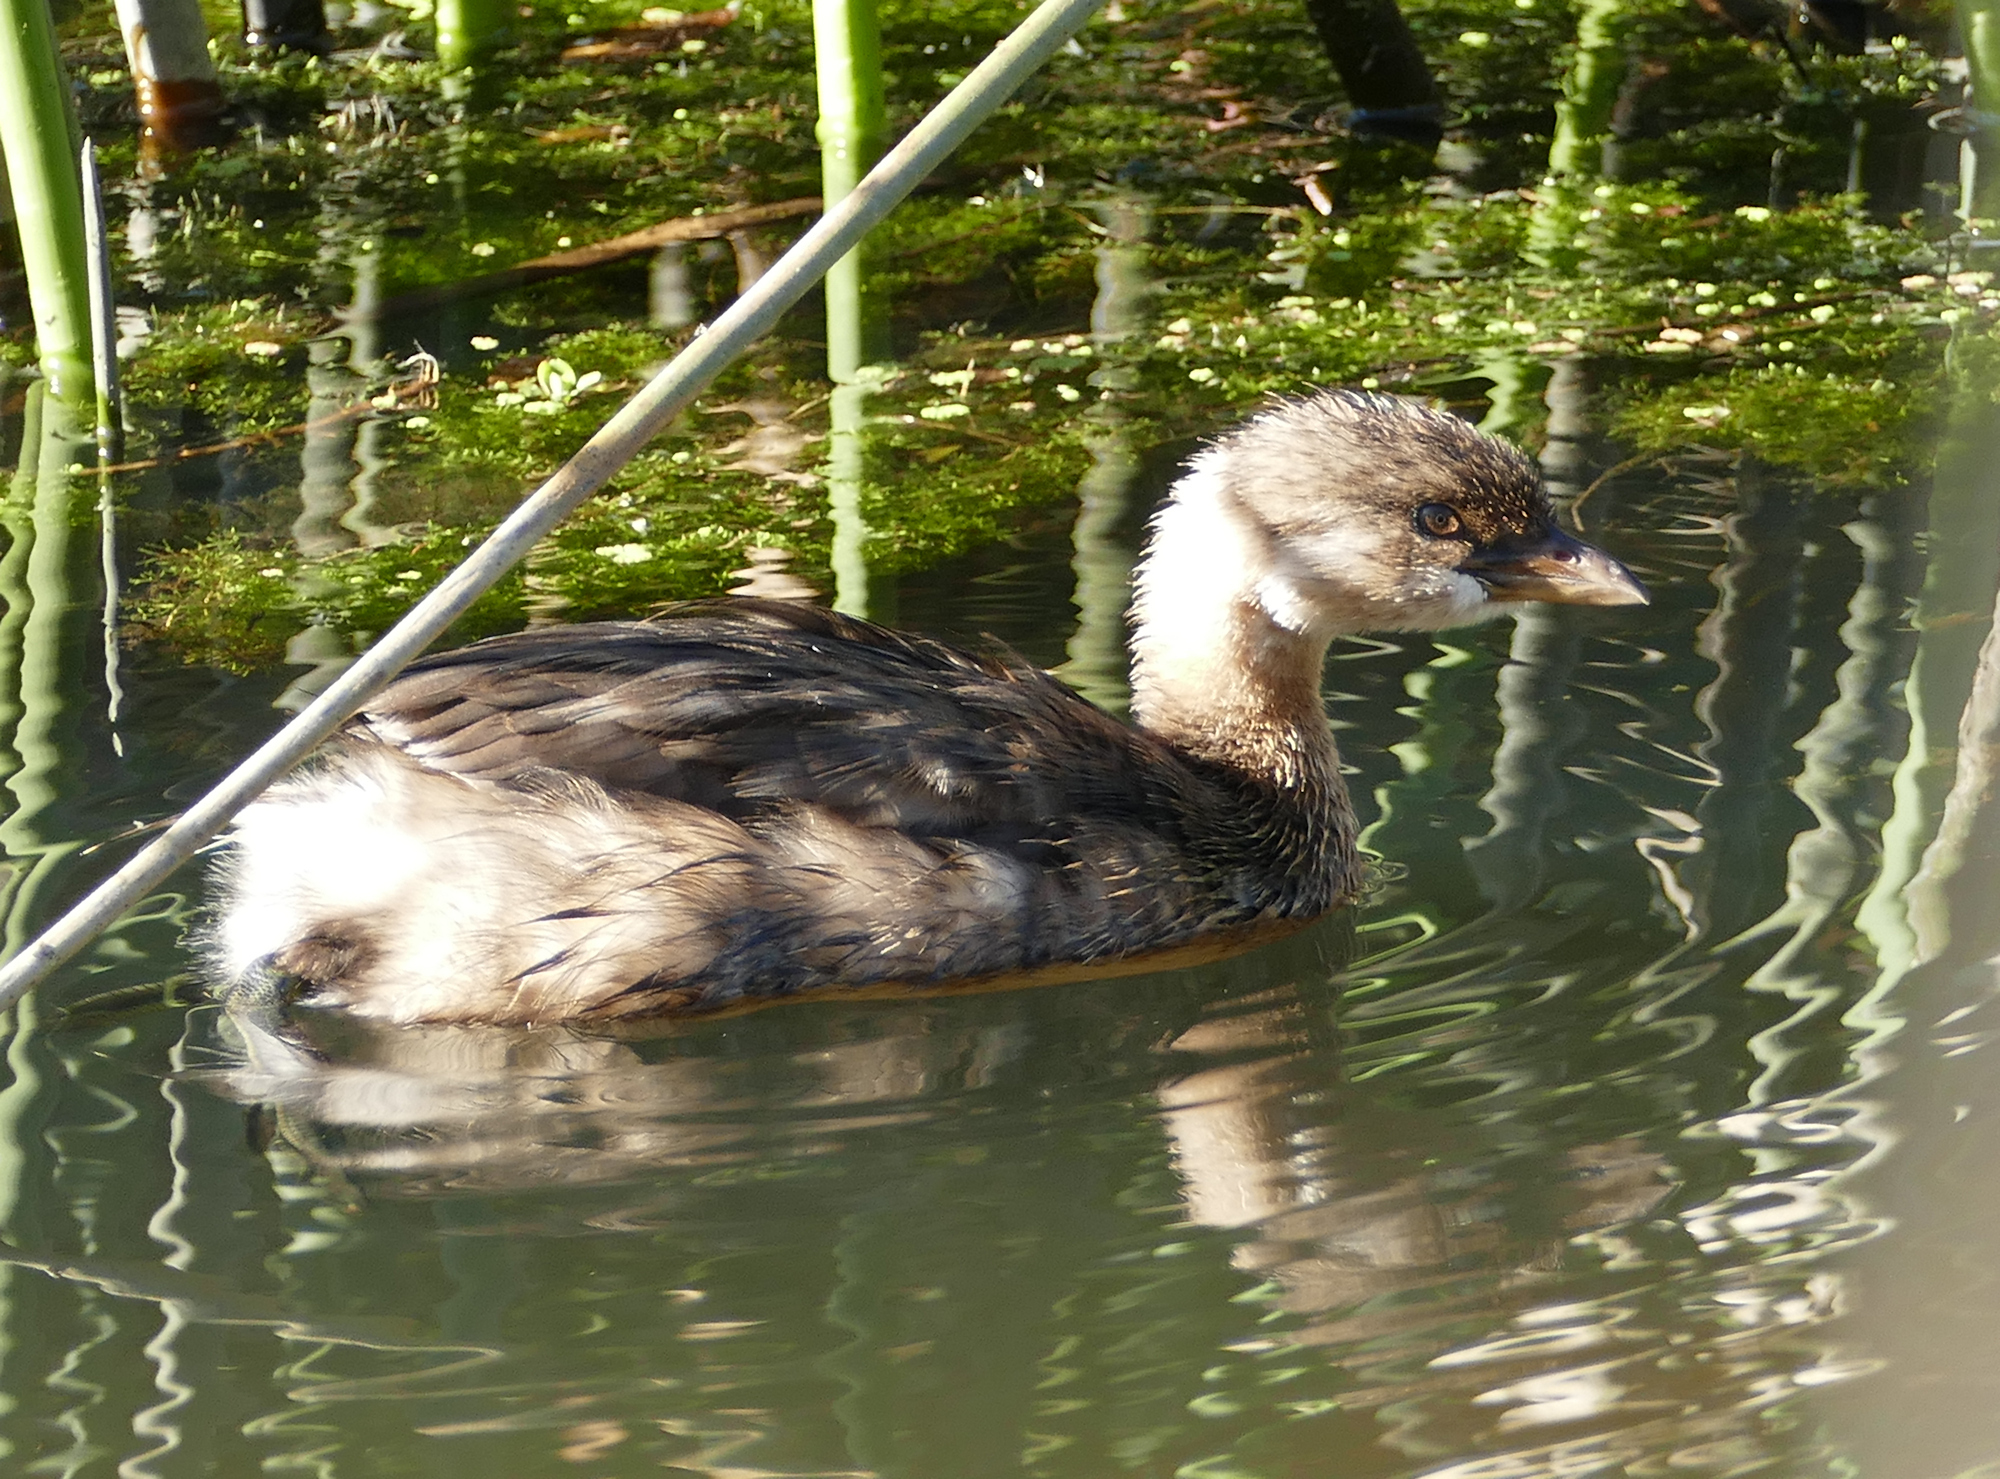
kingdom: Animalia
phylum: Chordata
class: Aves
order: Podicipediformes
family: Podicipedidae
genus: Podilymbus
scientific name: Podilymbus podiceps
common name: Pied-billed grebe
